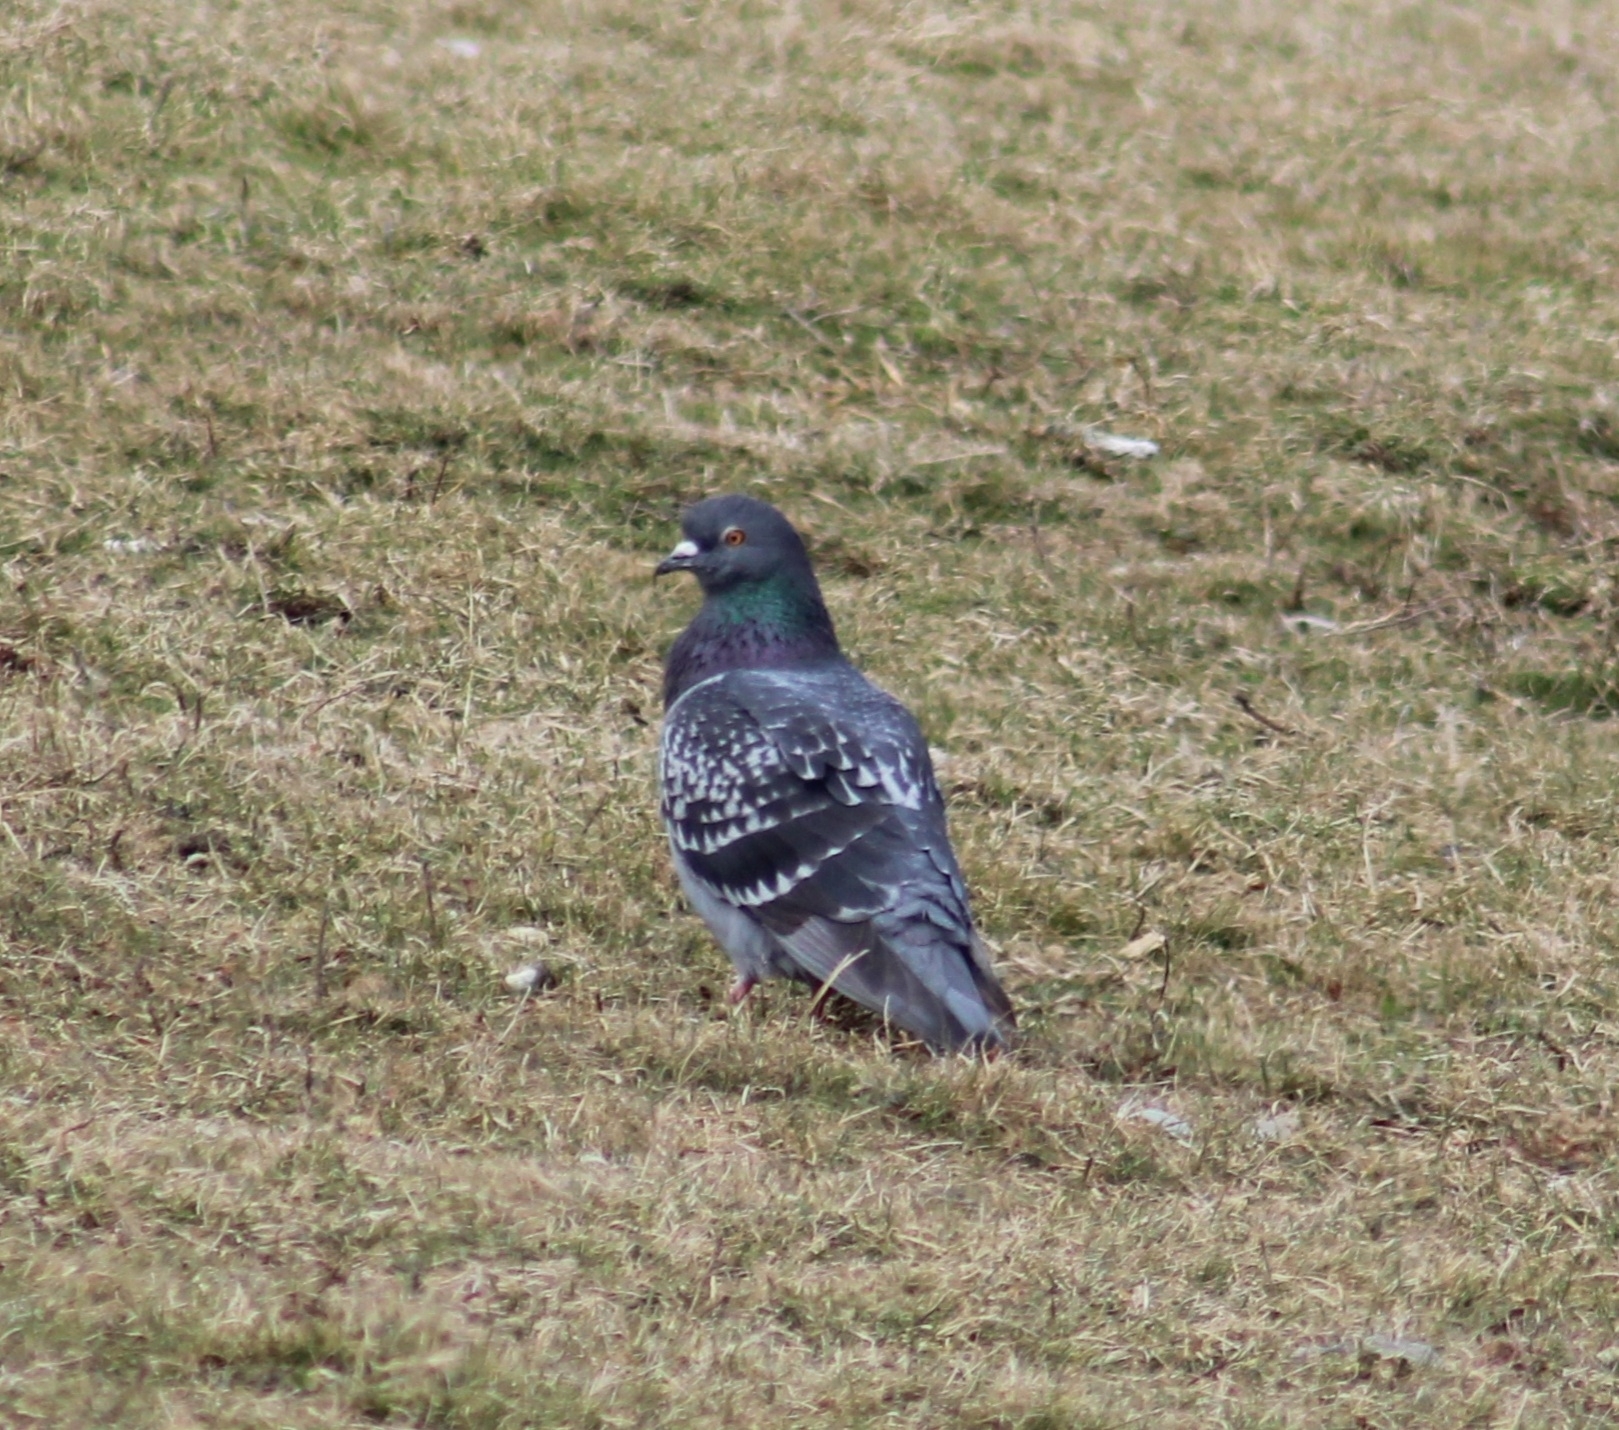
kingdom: Animalia
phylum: Chordata
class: Aves
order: Columbiformes
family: Columbidae
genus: Columba
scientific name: Columba livia
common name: Rock pigeon
